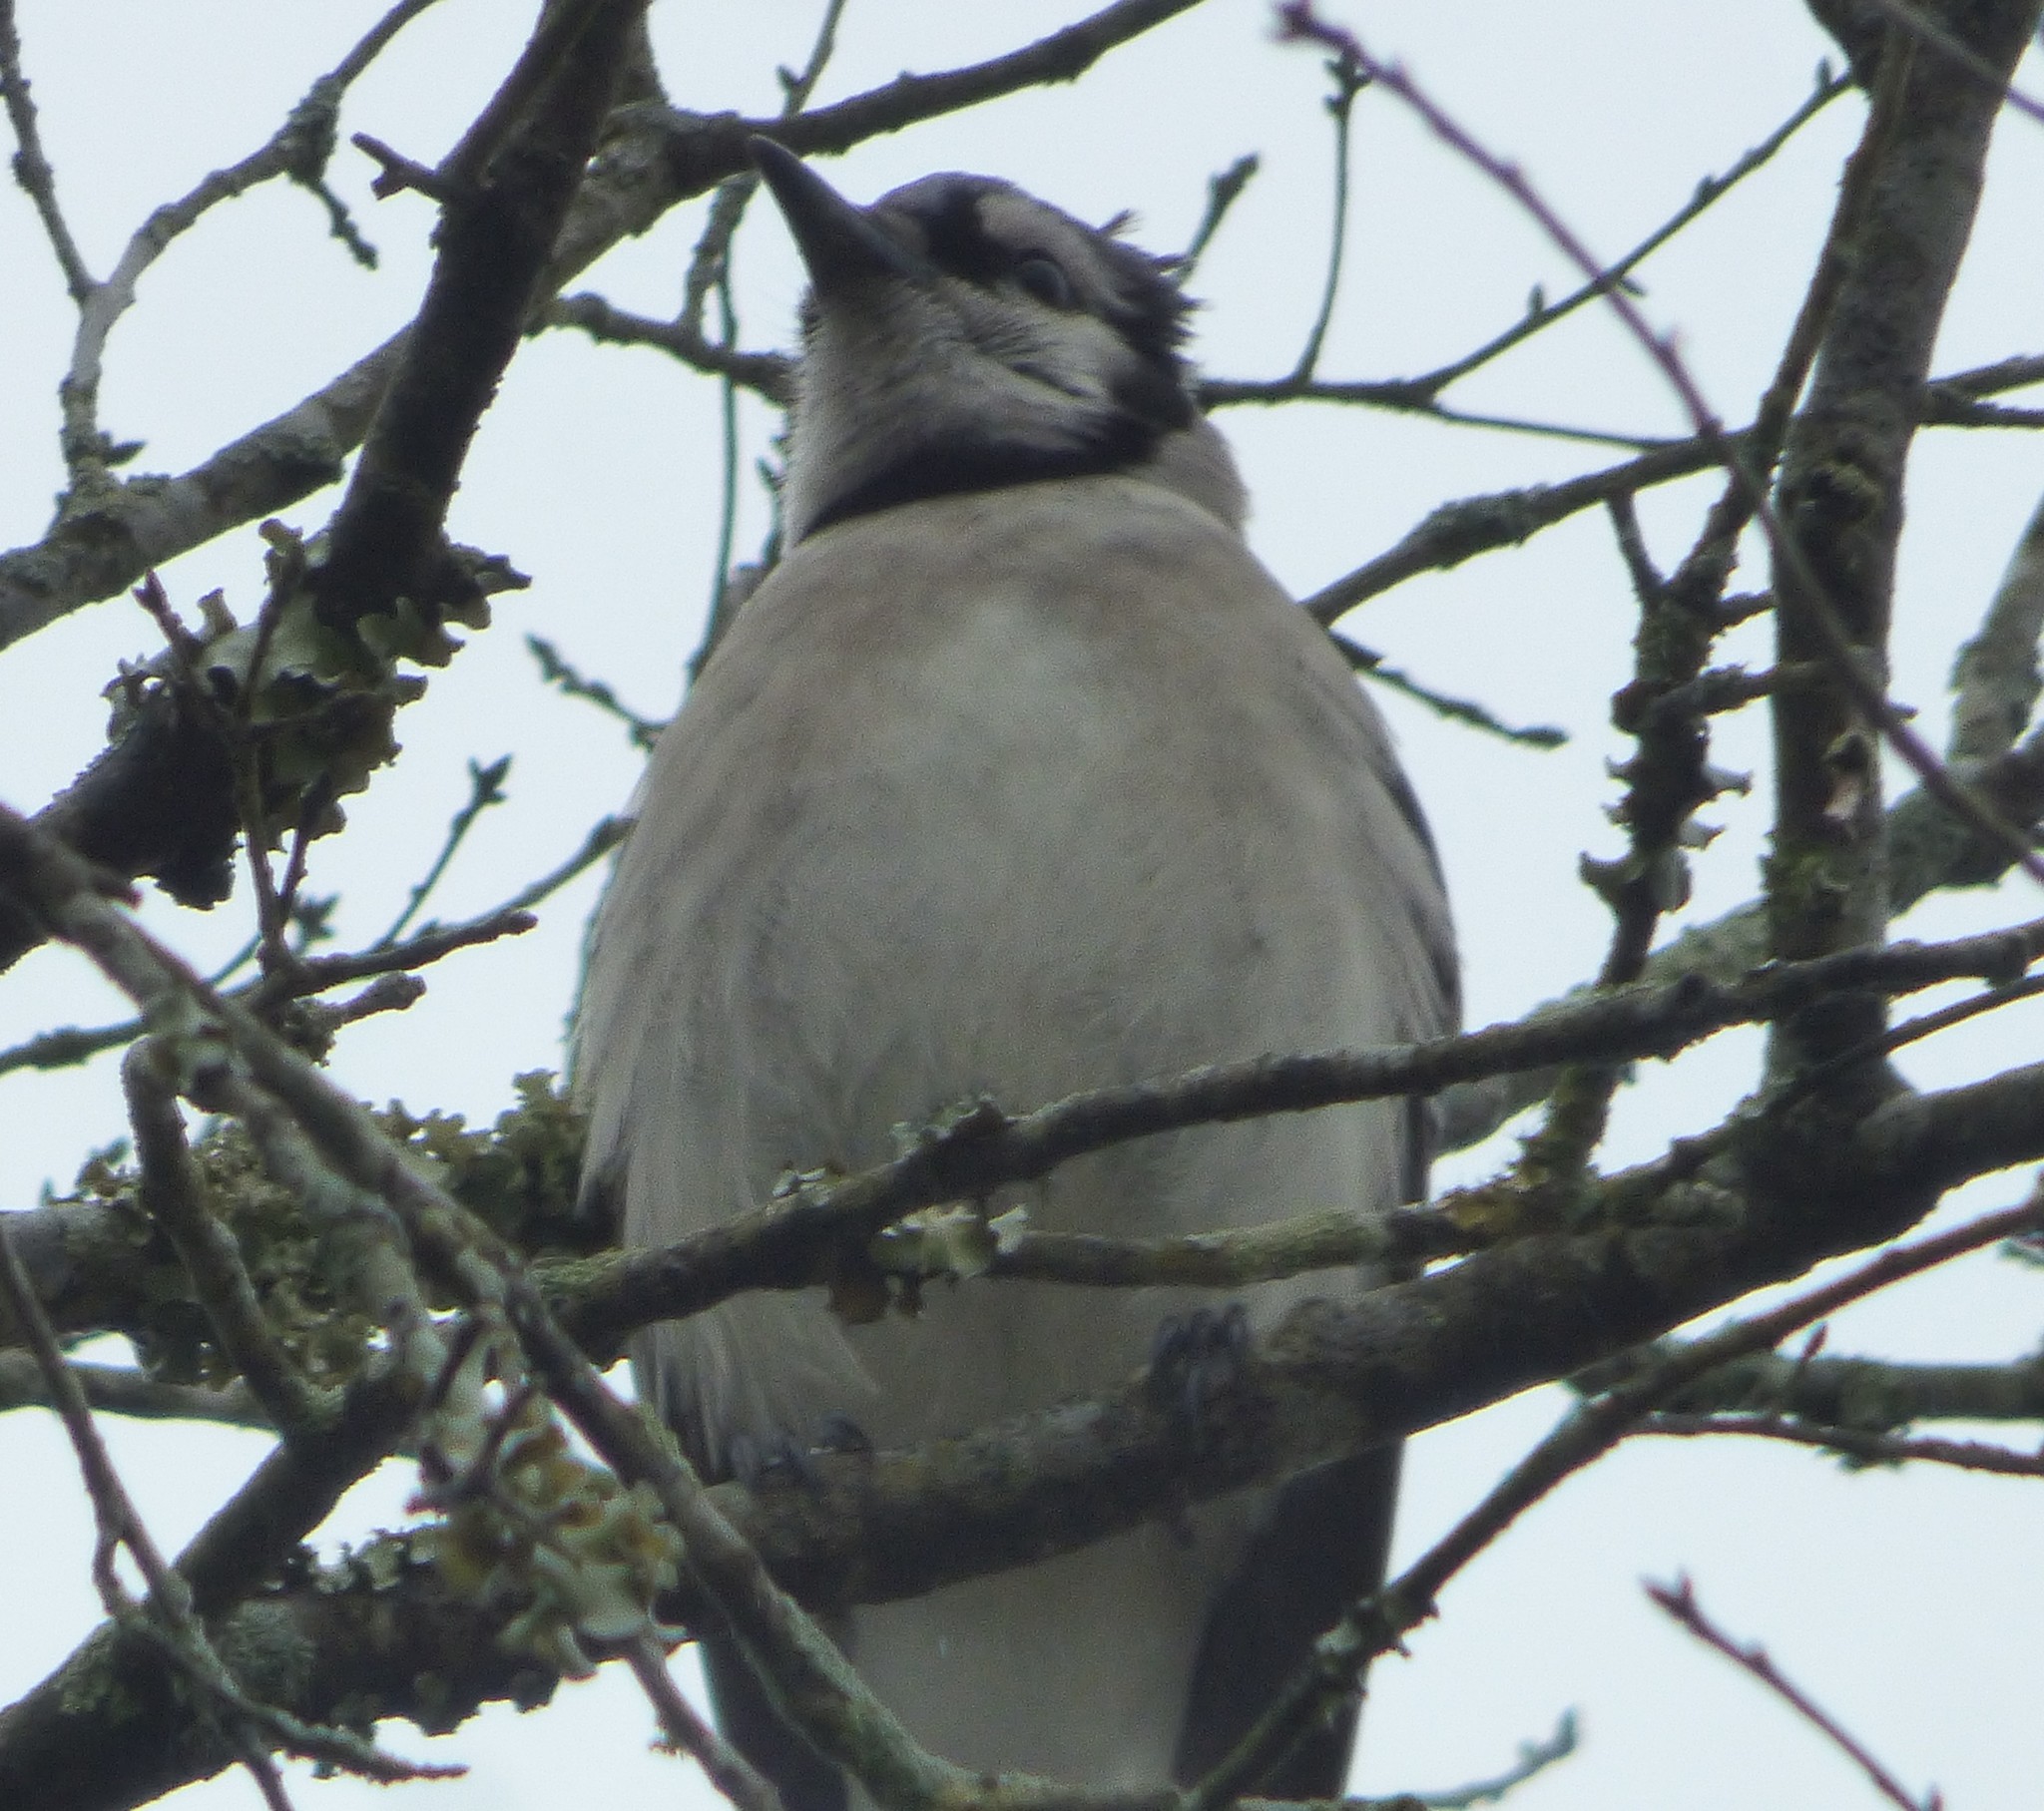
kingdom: Animalia
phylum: Chordata
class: Aves
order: Passeriformes
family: Corvidae
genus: Cyanocitta
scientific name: Cyanocitta cristata
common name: Blue jay
